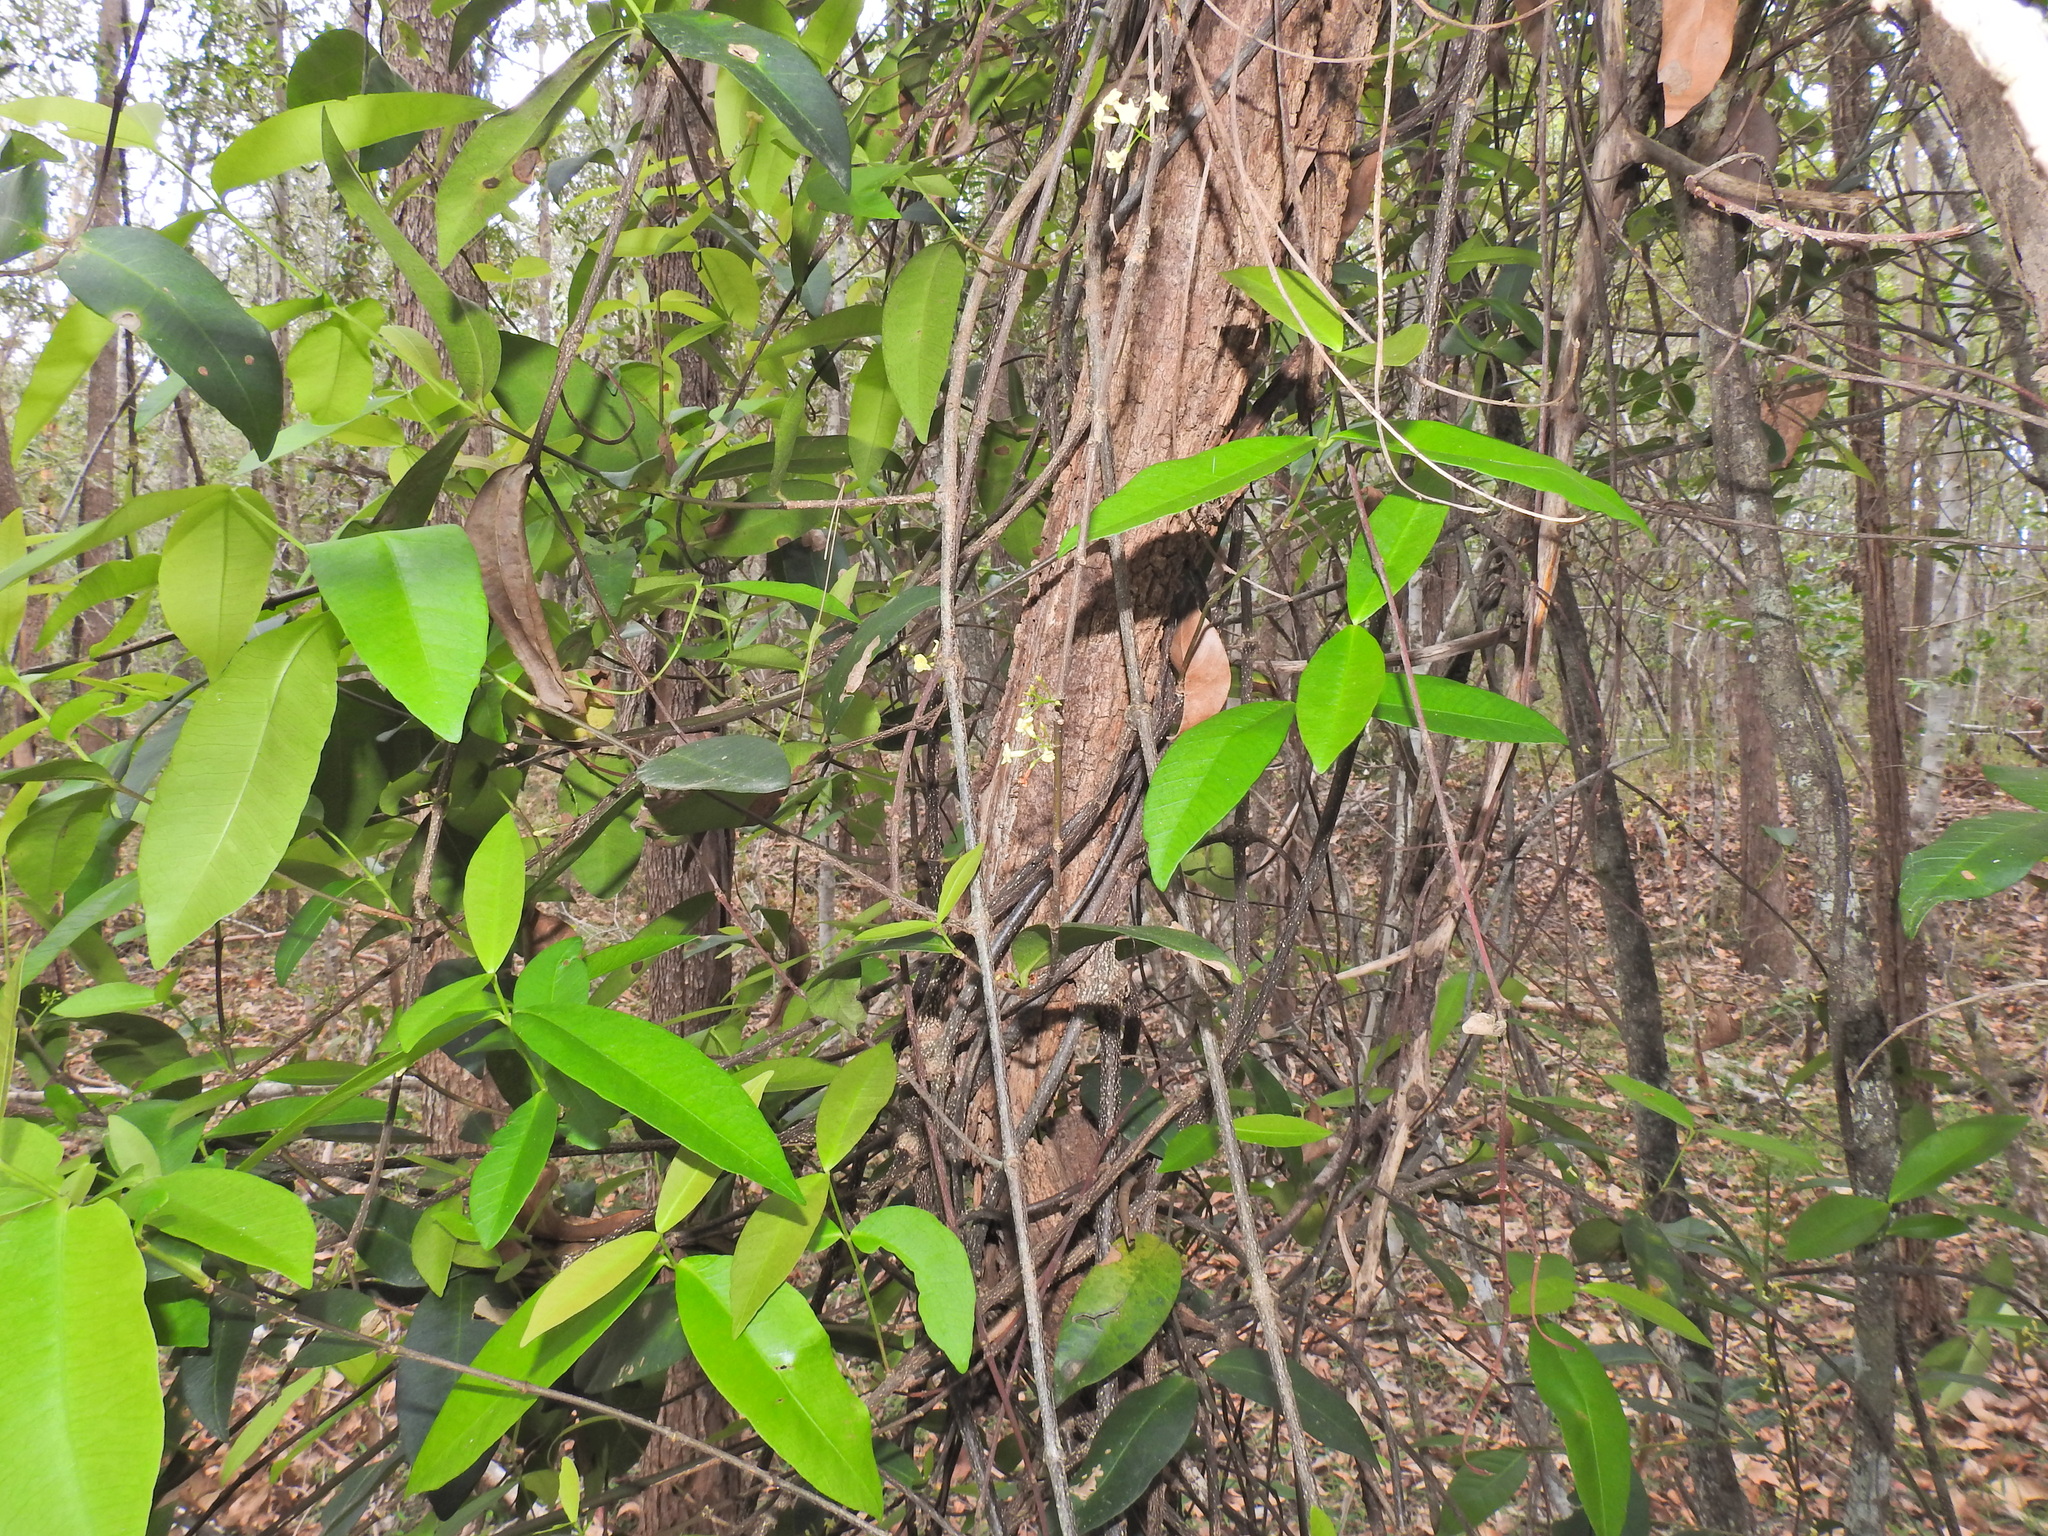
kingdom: Plantae
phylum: Tracheophyta
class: Magnoliopsida
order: Gentianales
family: Apocynaceae
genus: Melodinus
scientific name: Melodinus australis
